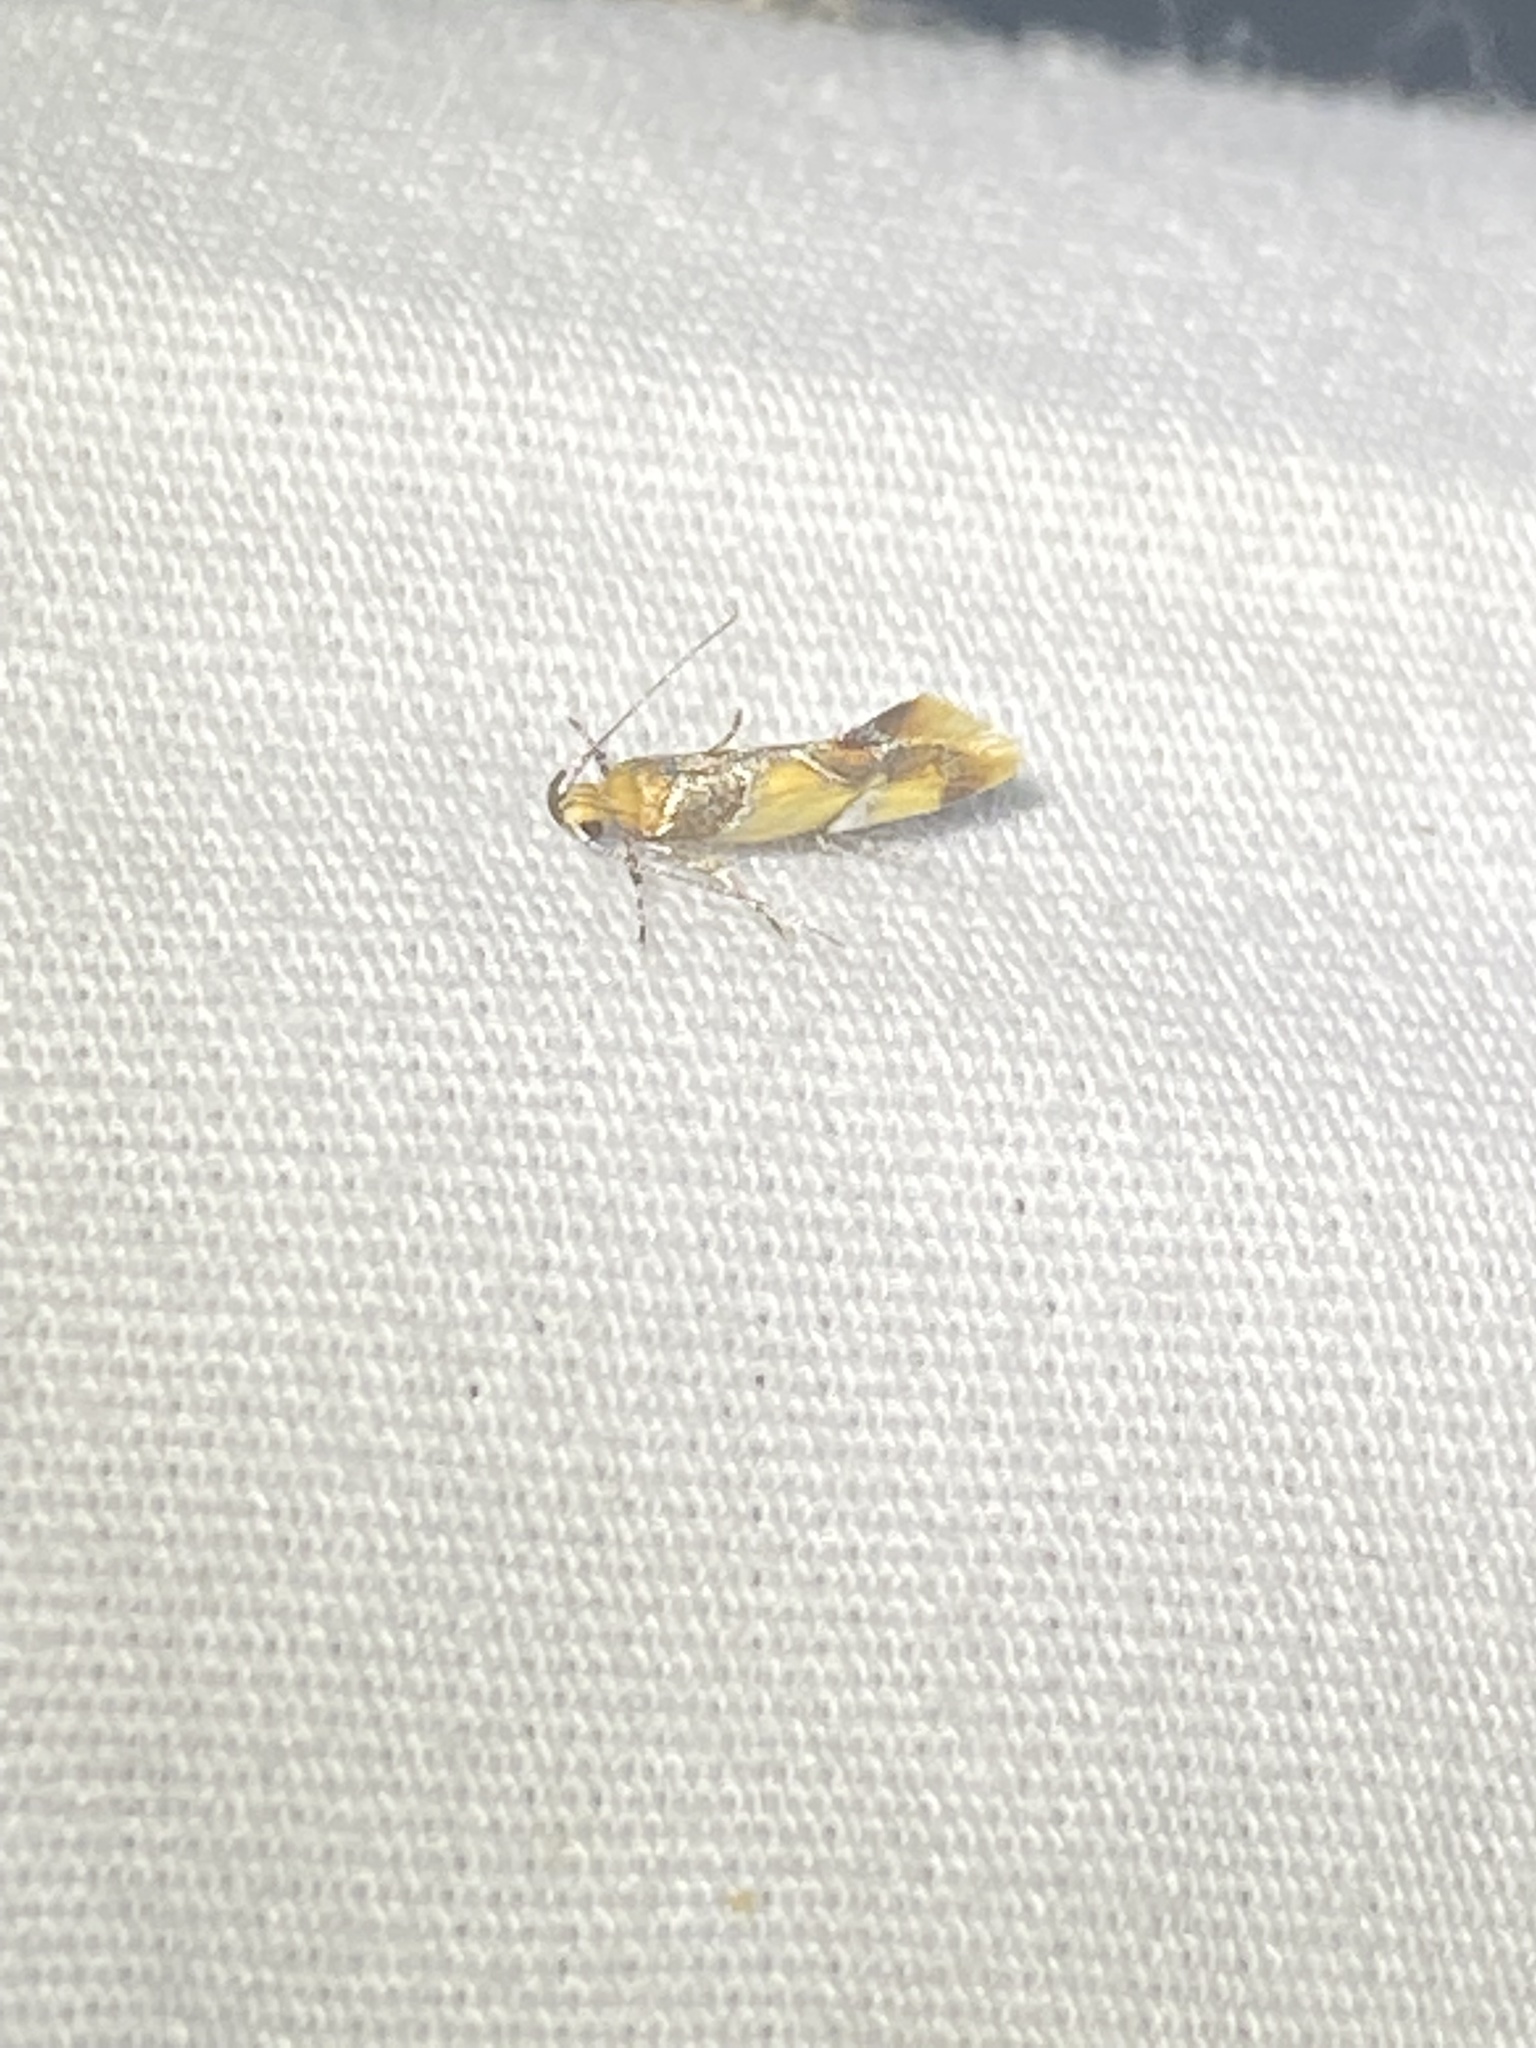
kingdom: Animalia
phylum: Arthropoda
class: Insecta
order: Lepidoptera
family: Oecophoridae
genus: Callima
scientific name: Callima argenticinctella
